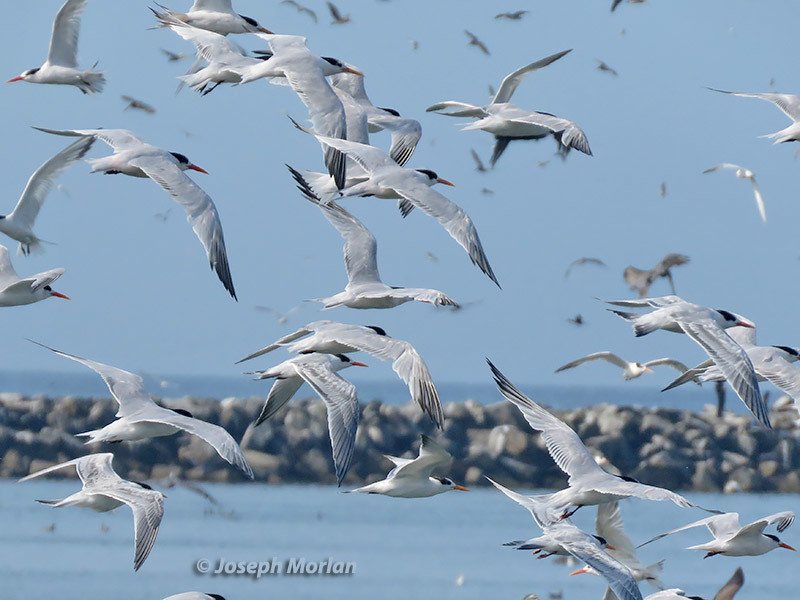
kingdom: Animalia
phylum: Chordata
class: Aves
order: Charadriiformes
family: Laridae
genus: Thalasseus
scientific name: Thalasseus elegans
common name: Elegant tern
